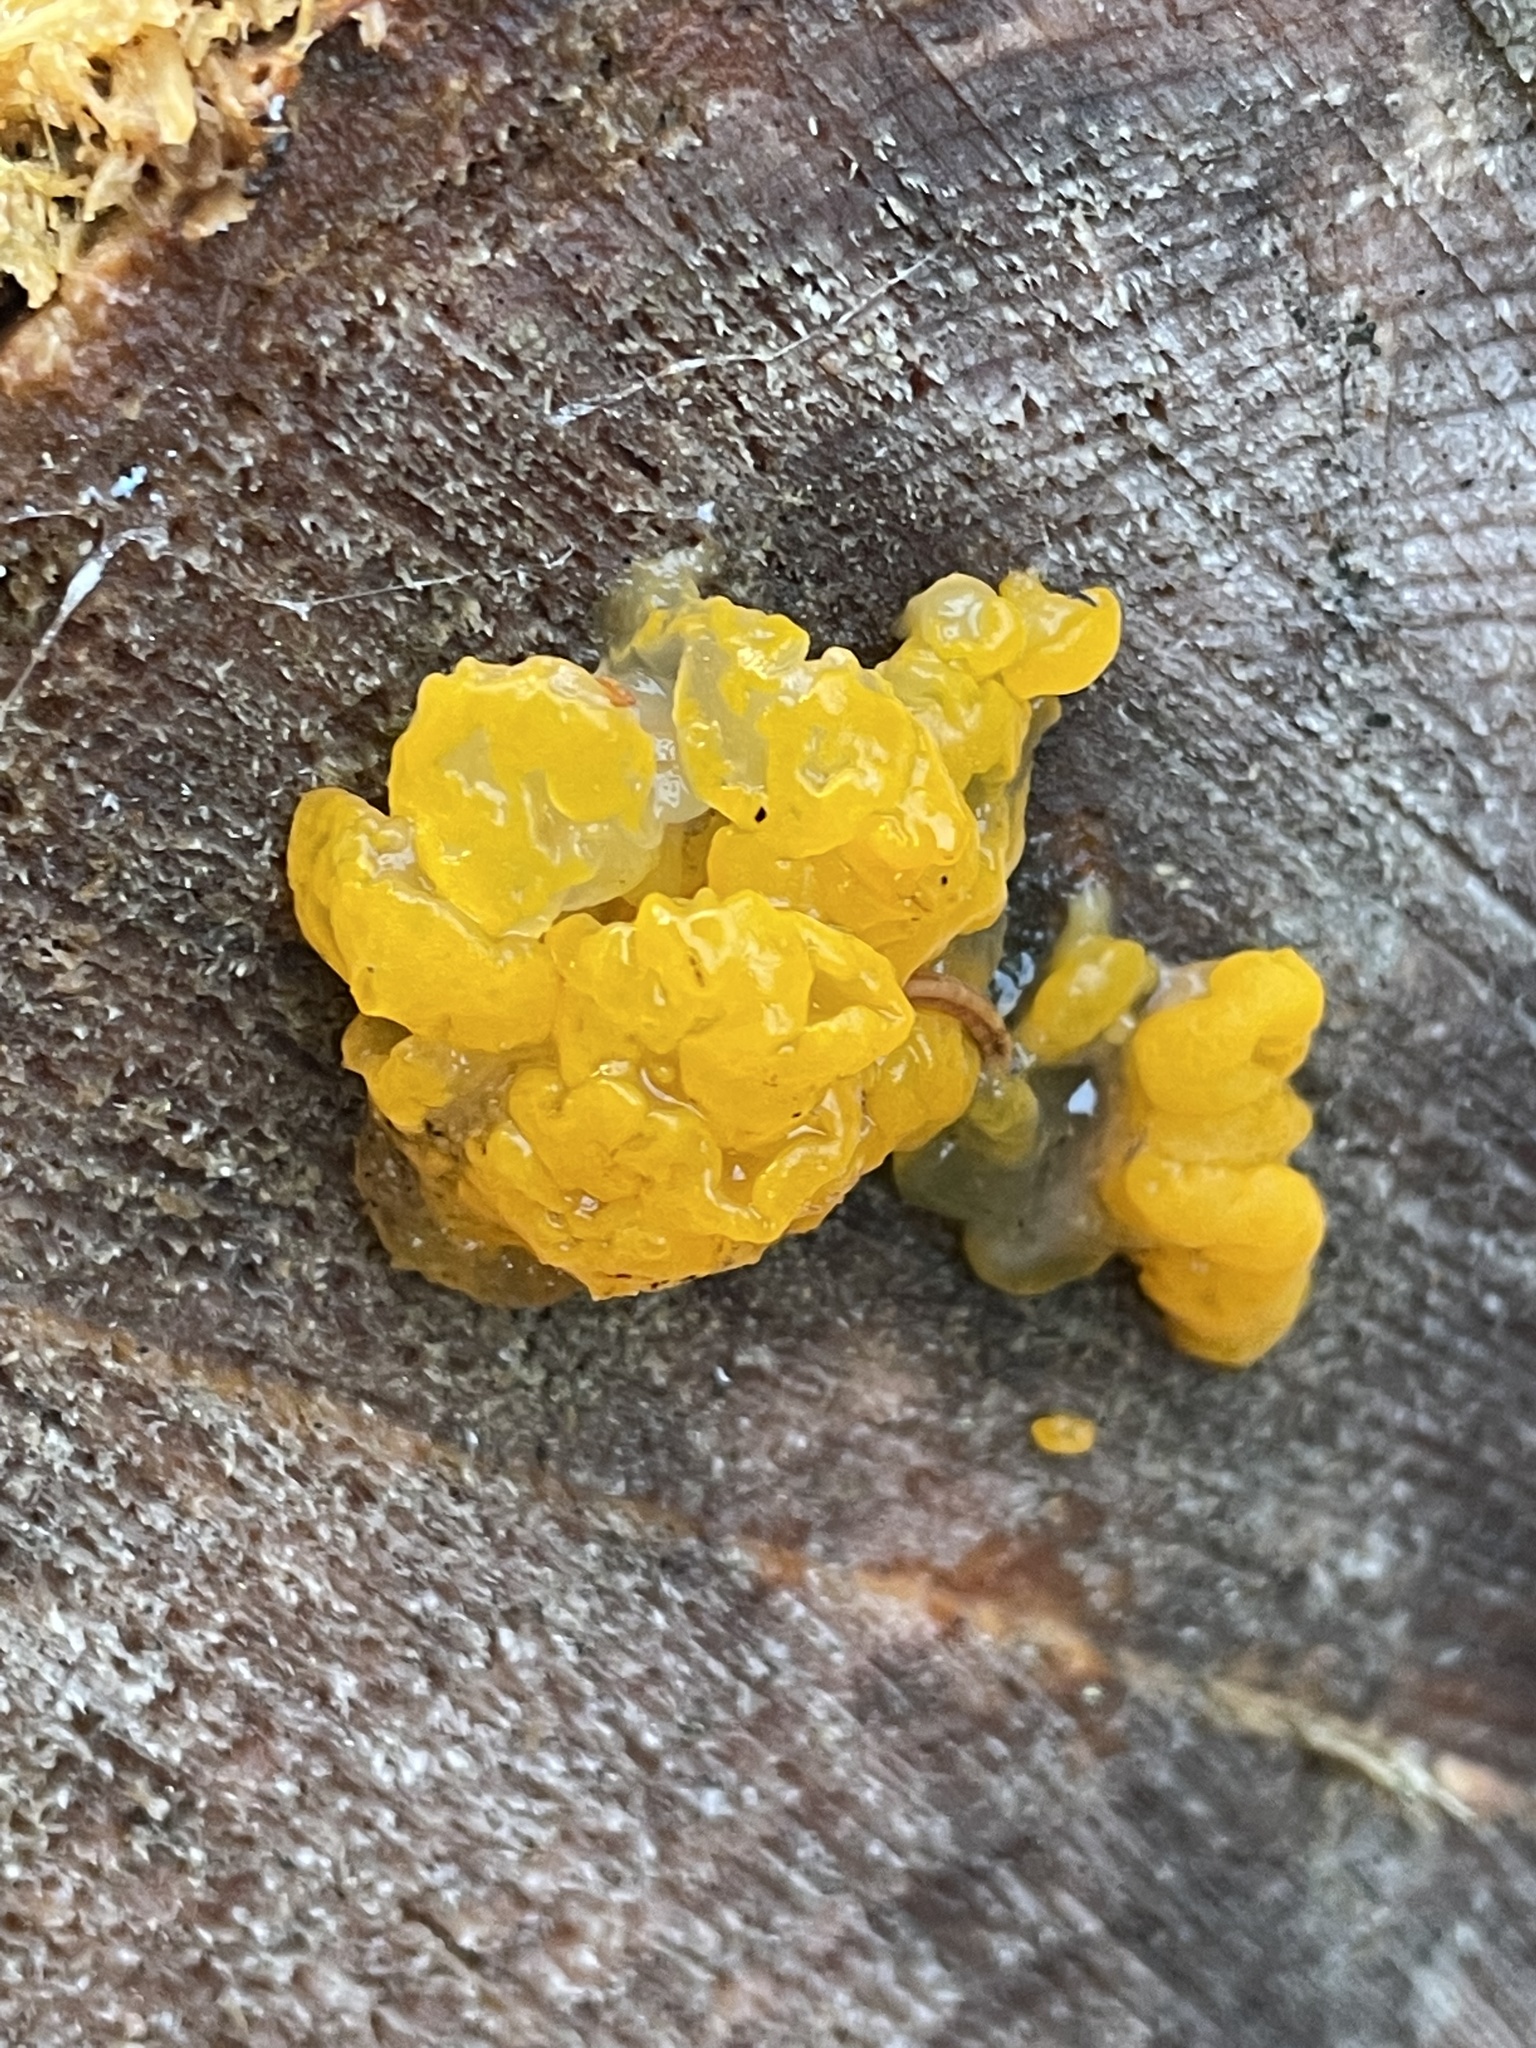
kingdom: Fungi
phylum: Basidiomycota
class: Dacrymycetes
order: Dacrymycetales
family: Dacrymycetaceae
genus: Dacrymyces
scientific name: Dacrymyces chrysospermus
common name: Orange jelly spot
